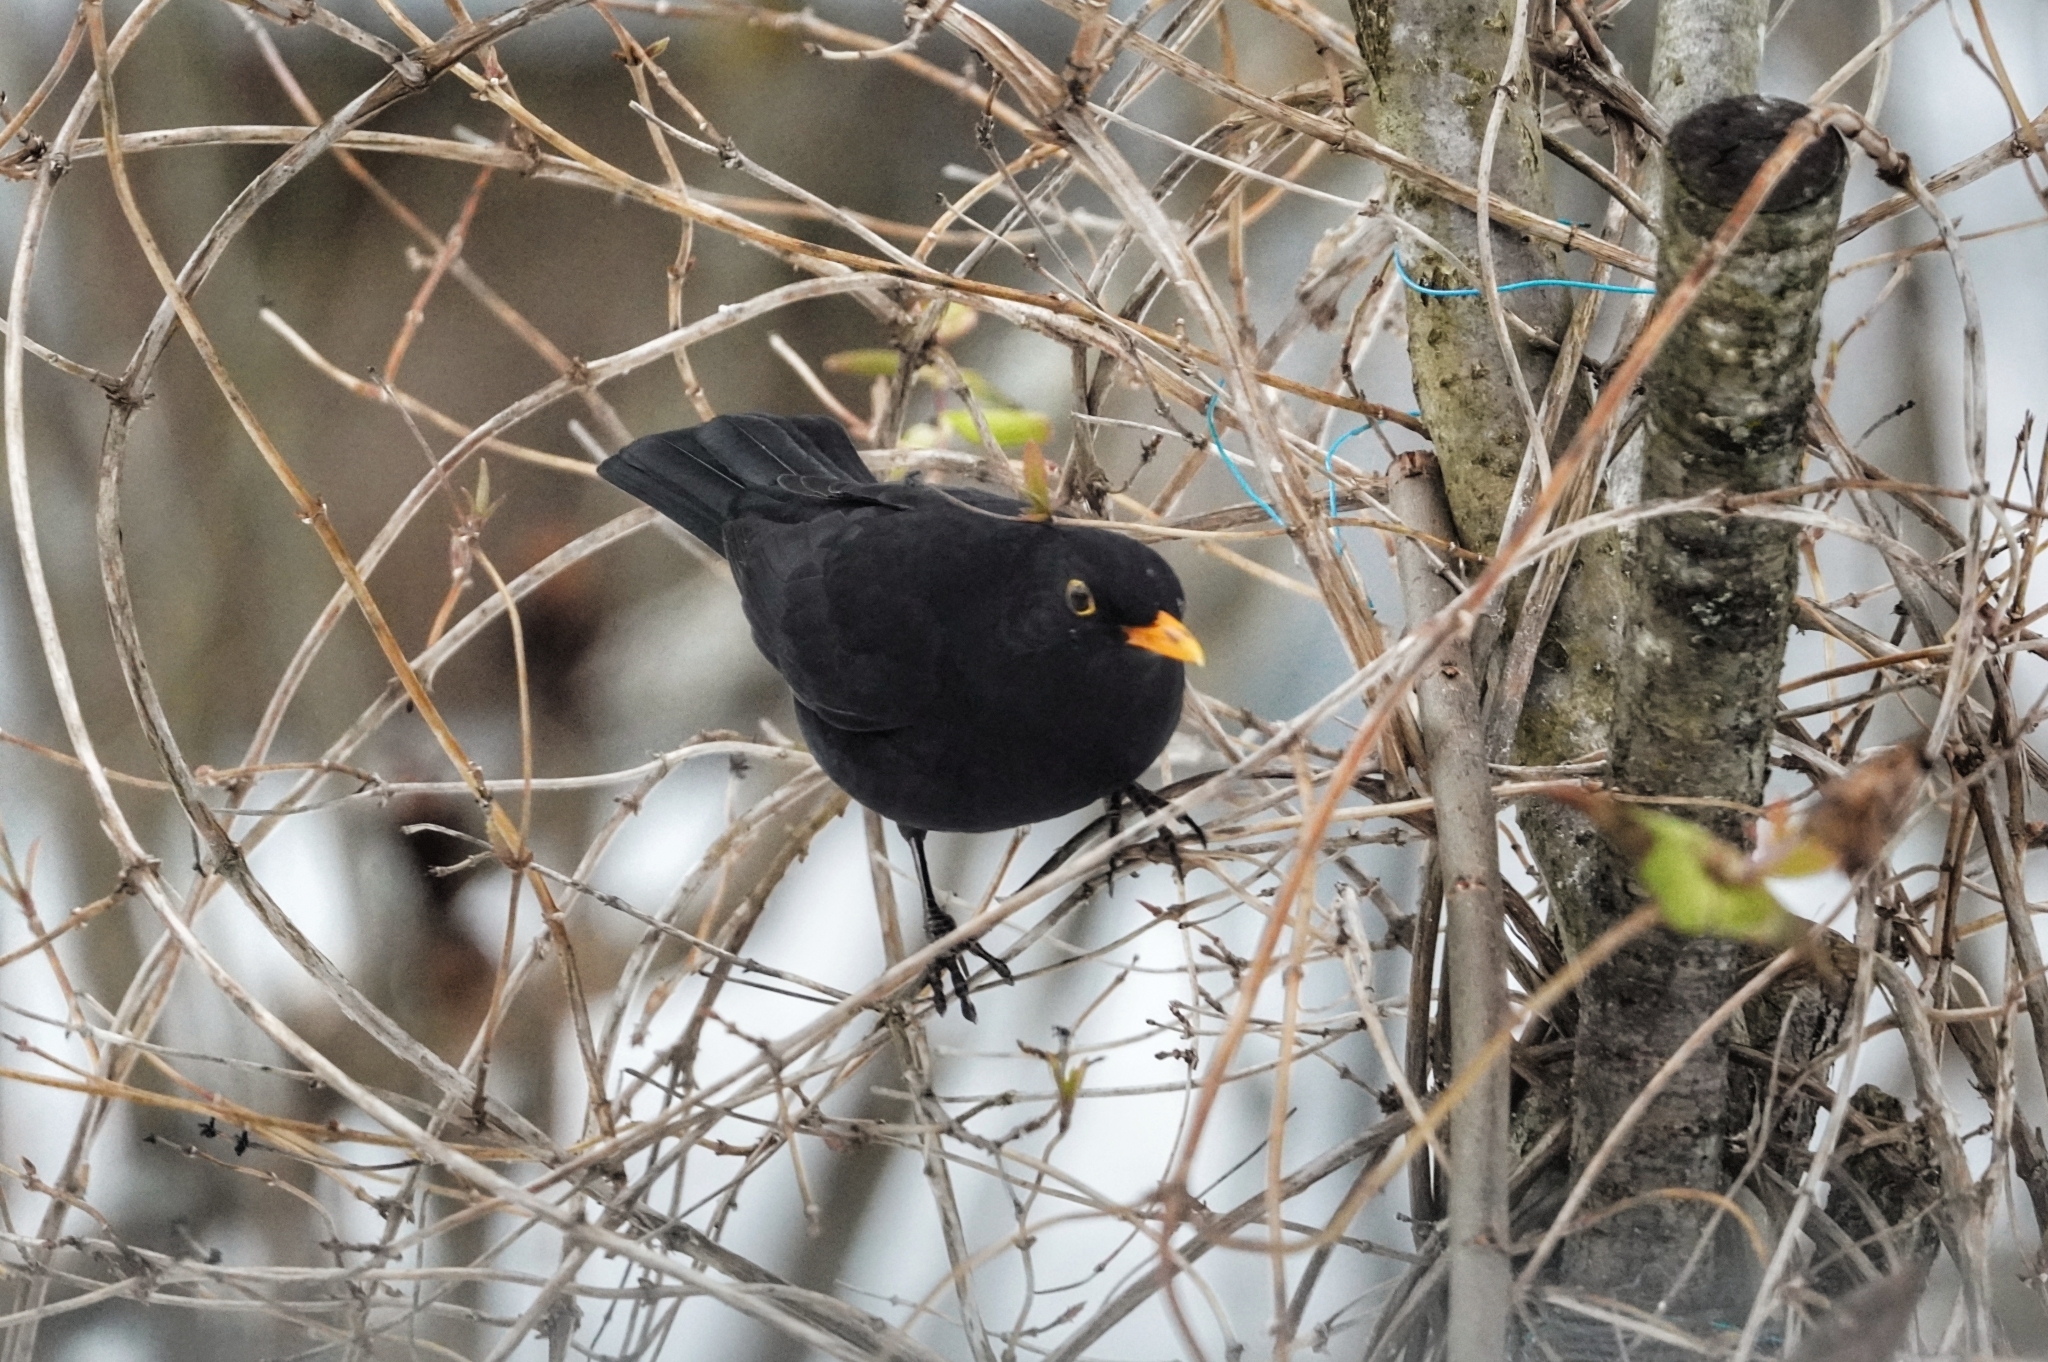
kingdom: Animalia
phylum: Chordata
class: Aves
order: Passeriformes
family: Turdidae
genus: Turdus
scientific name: Turdus merula
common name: Common blackbird
